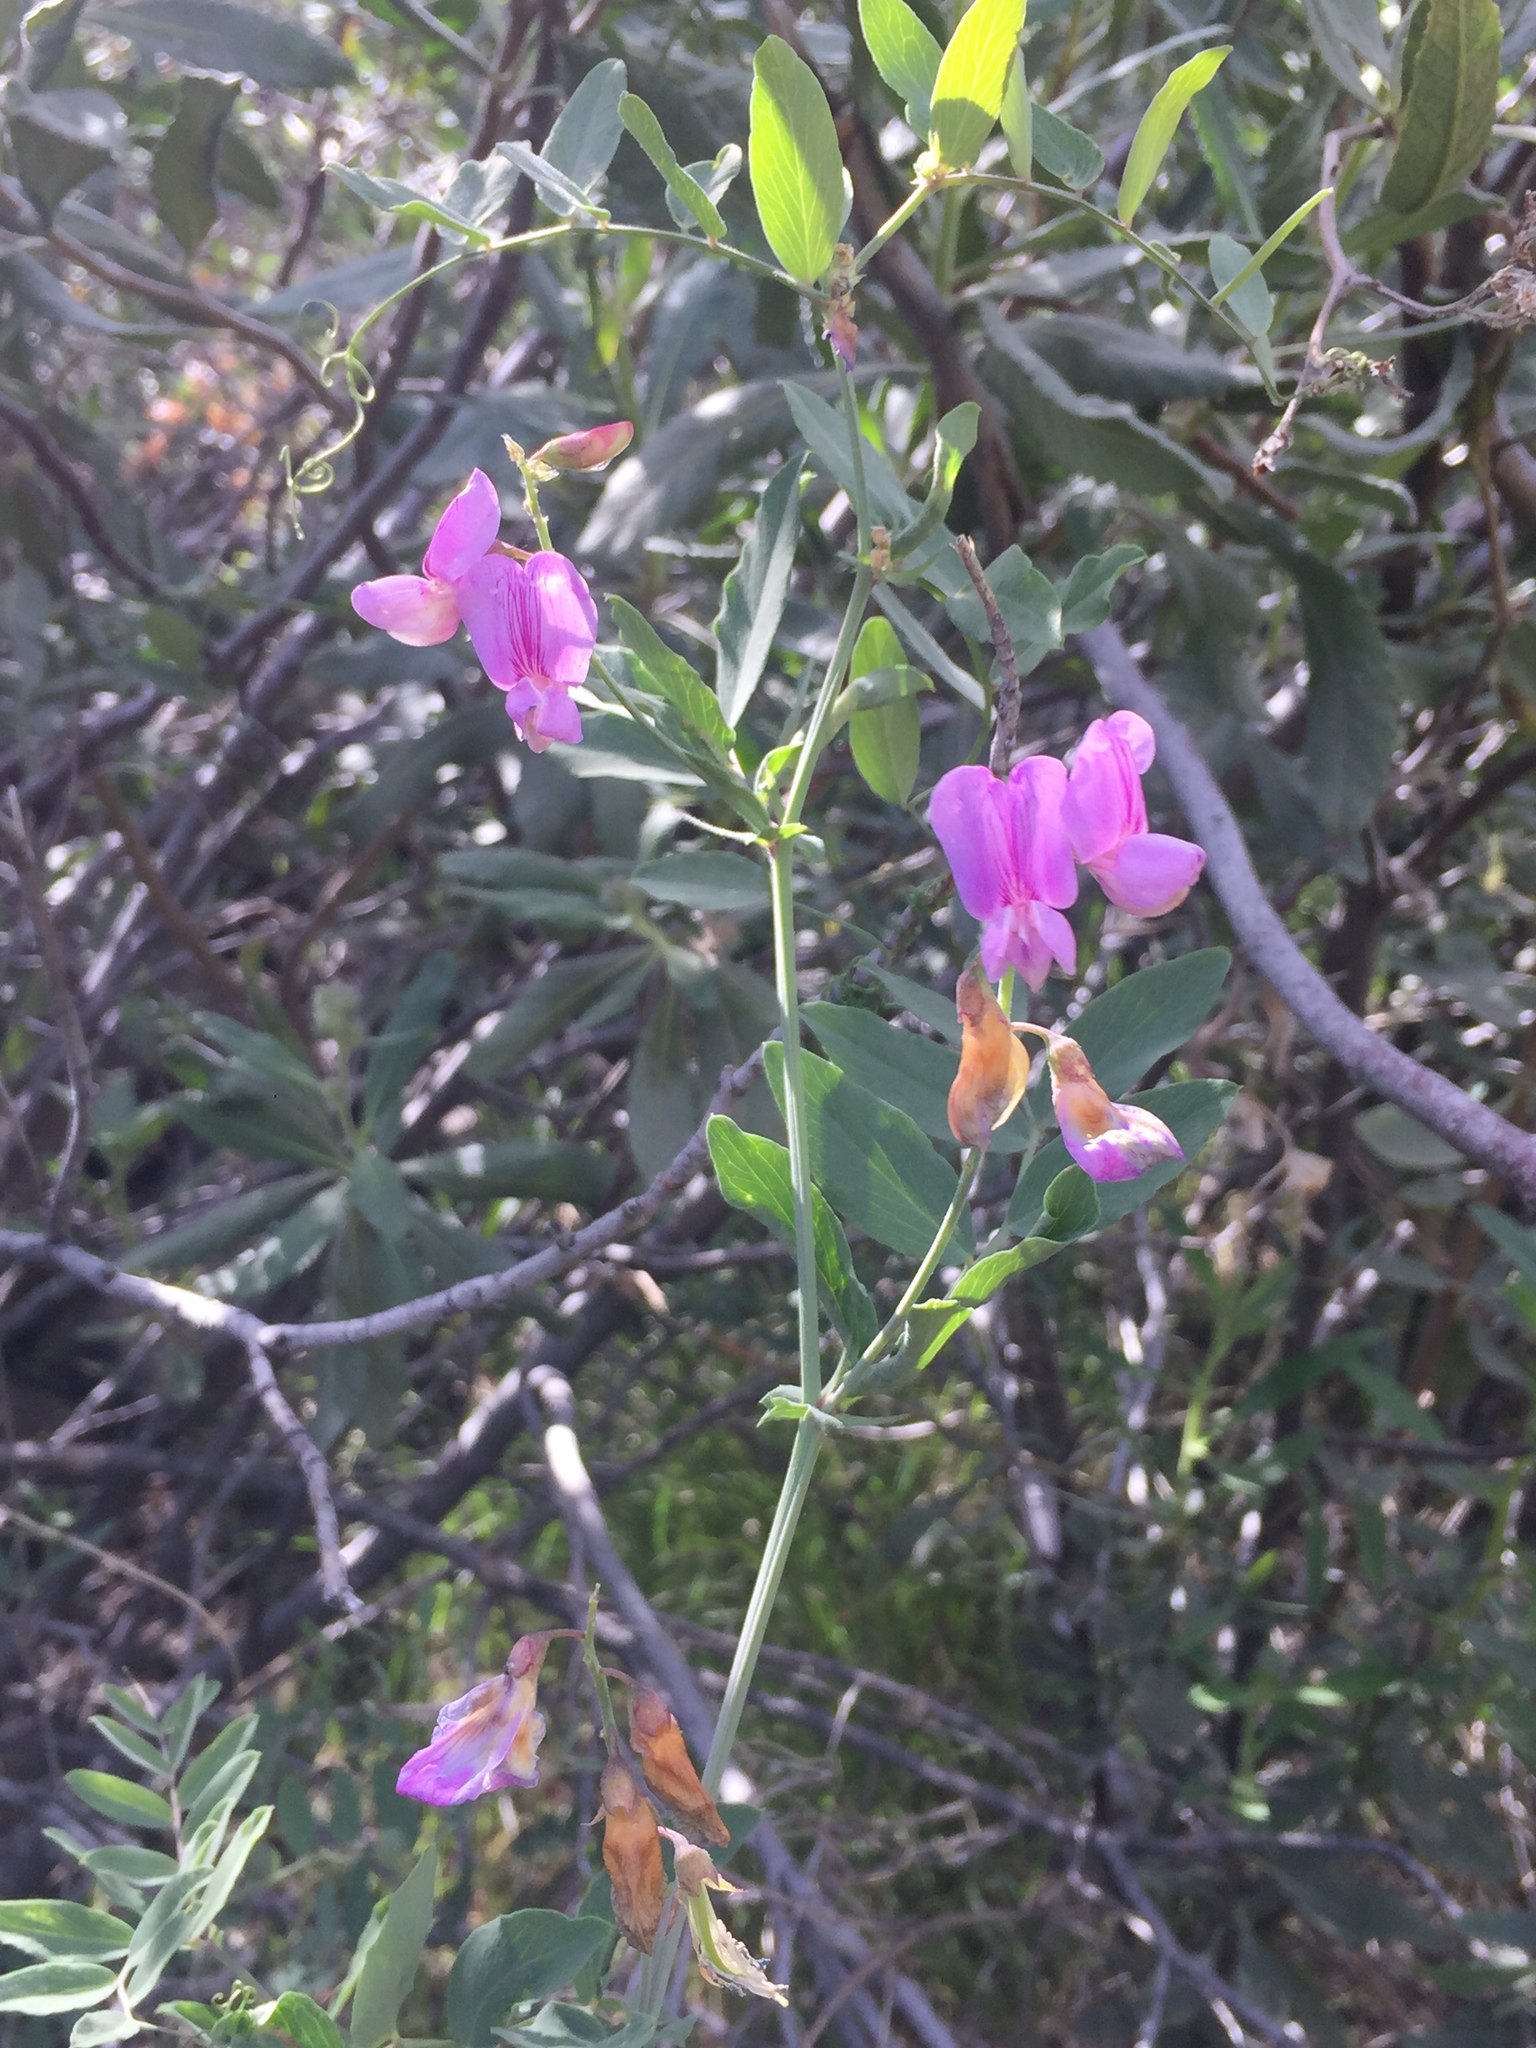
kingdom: Plantae
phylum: Tracheophyta
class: Magnoliopsida
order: Fabales
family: Fabaceae
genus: Lathyrus
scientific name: Lathyrus vestitus
